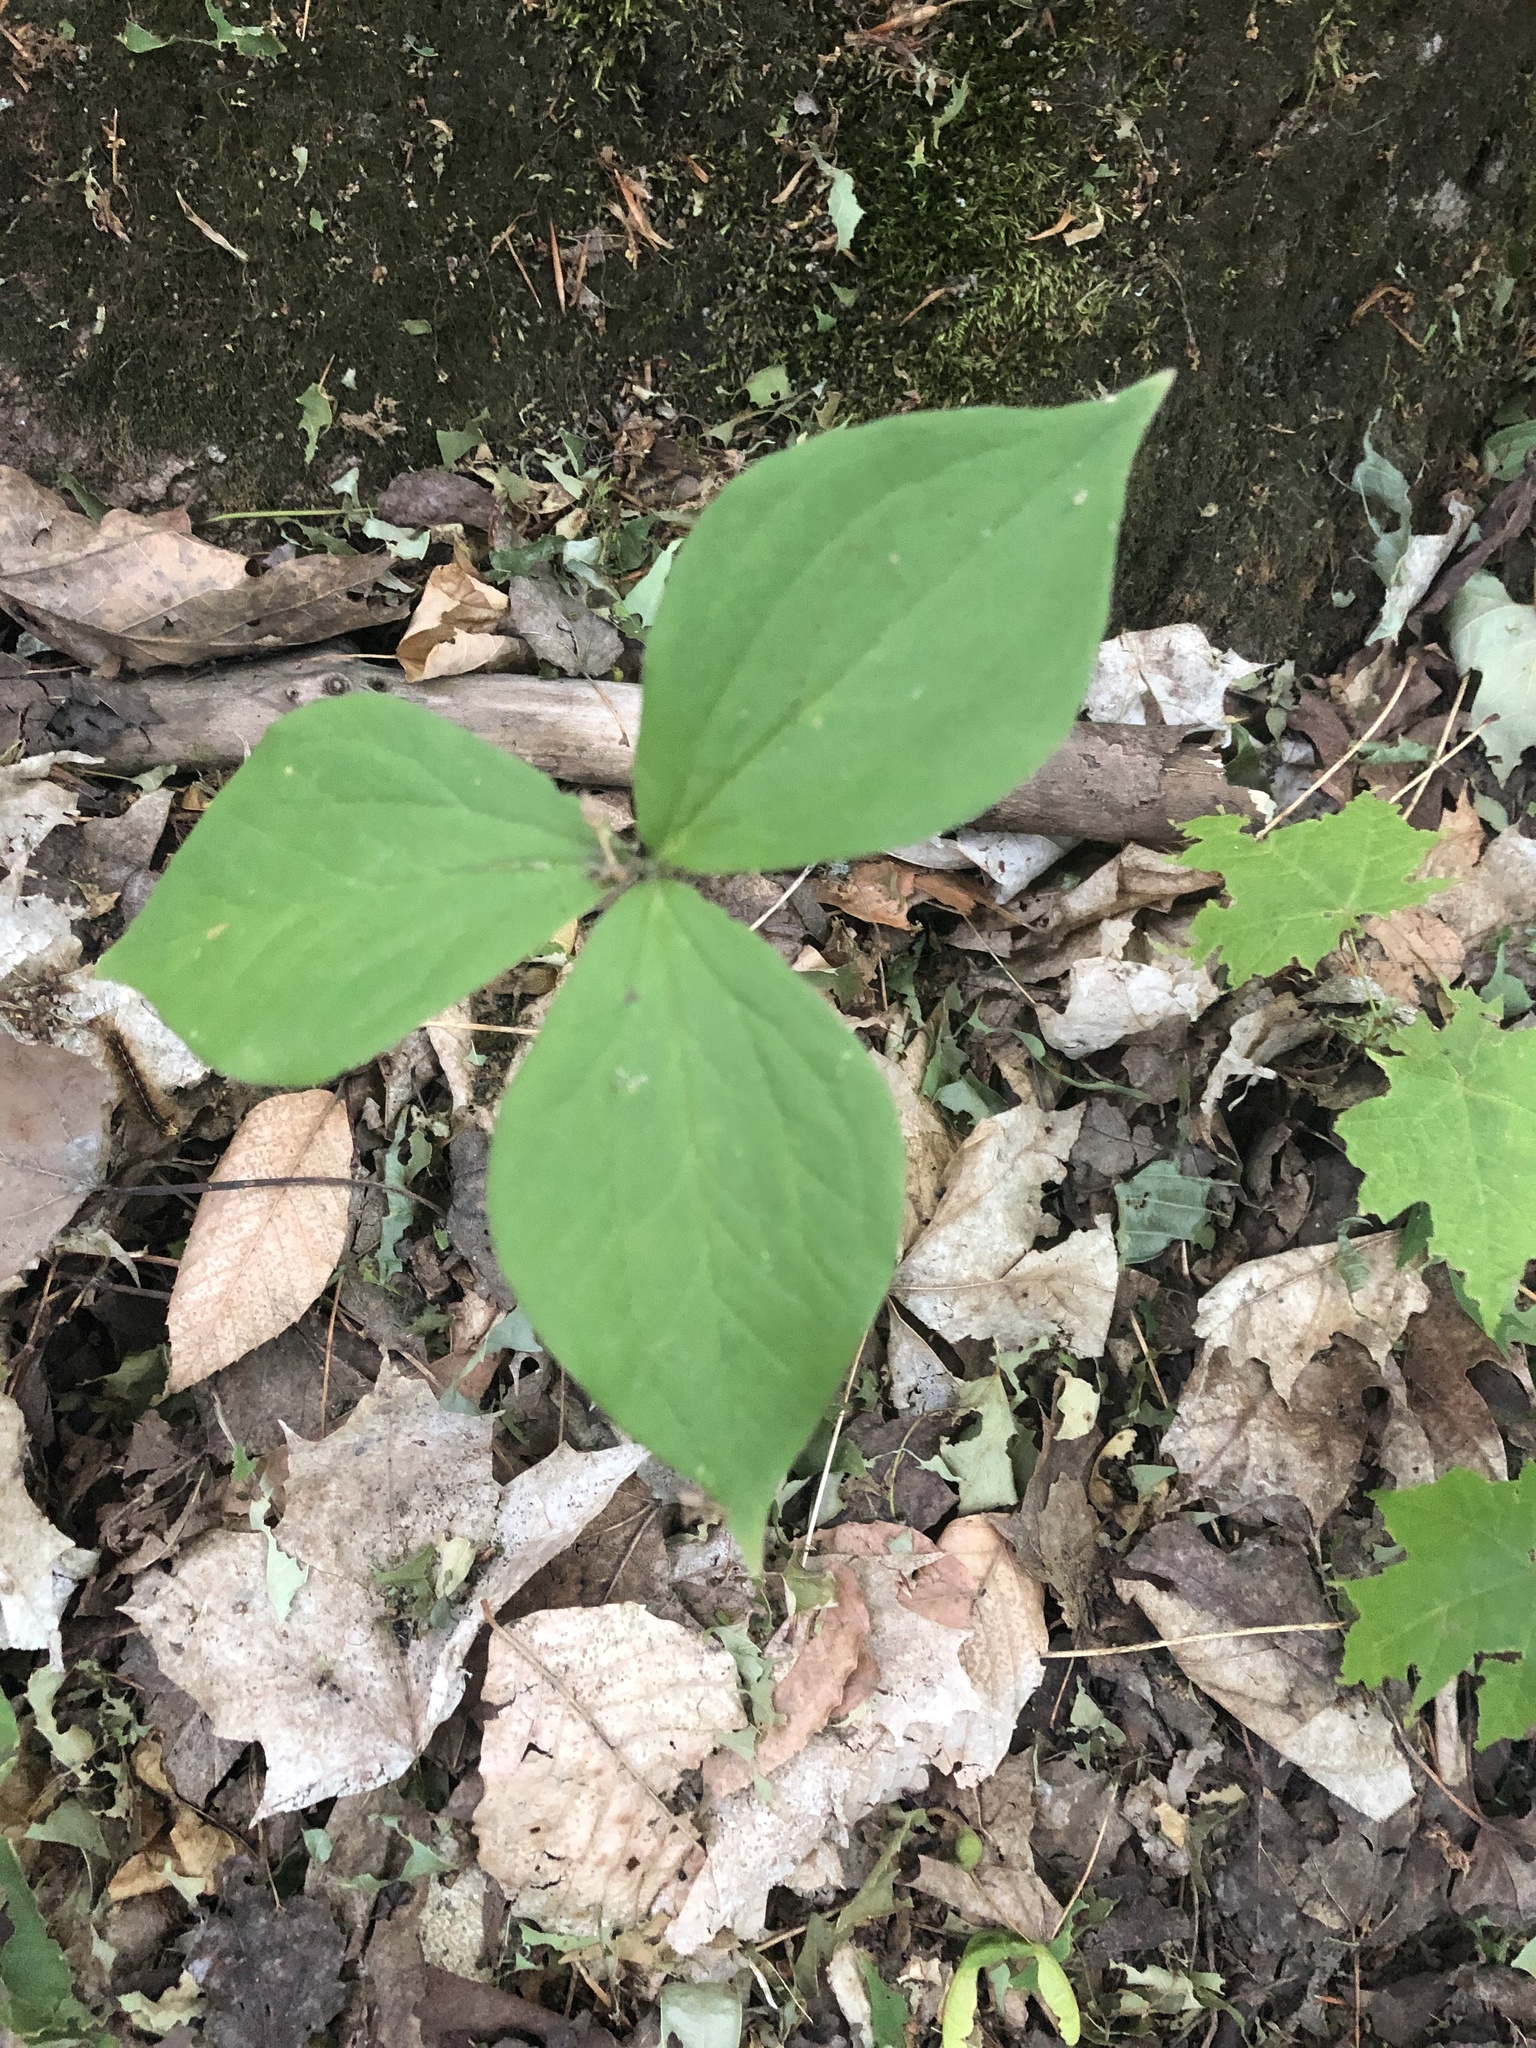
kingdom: Plantae
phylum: Tracheophyta
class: Liliopsida
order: Liliales
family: Melanthiaceae
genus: Trillium
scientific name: Trillium grandiflorum
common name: Great white trillium
